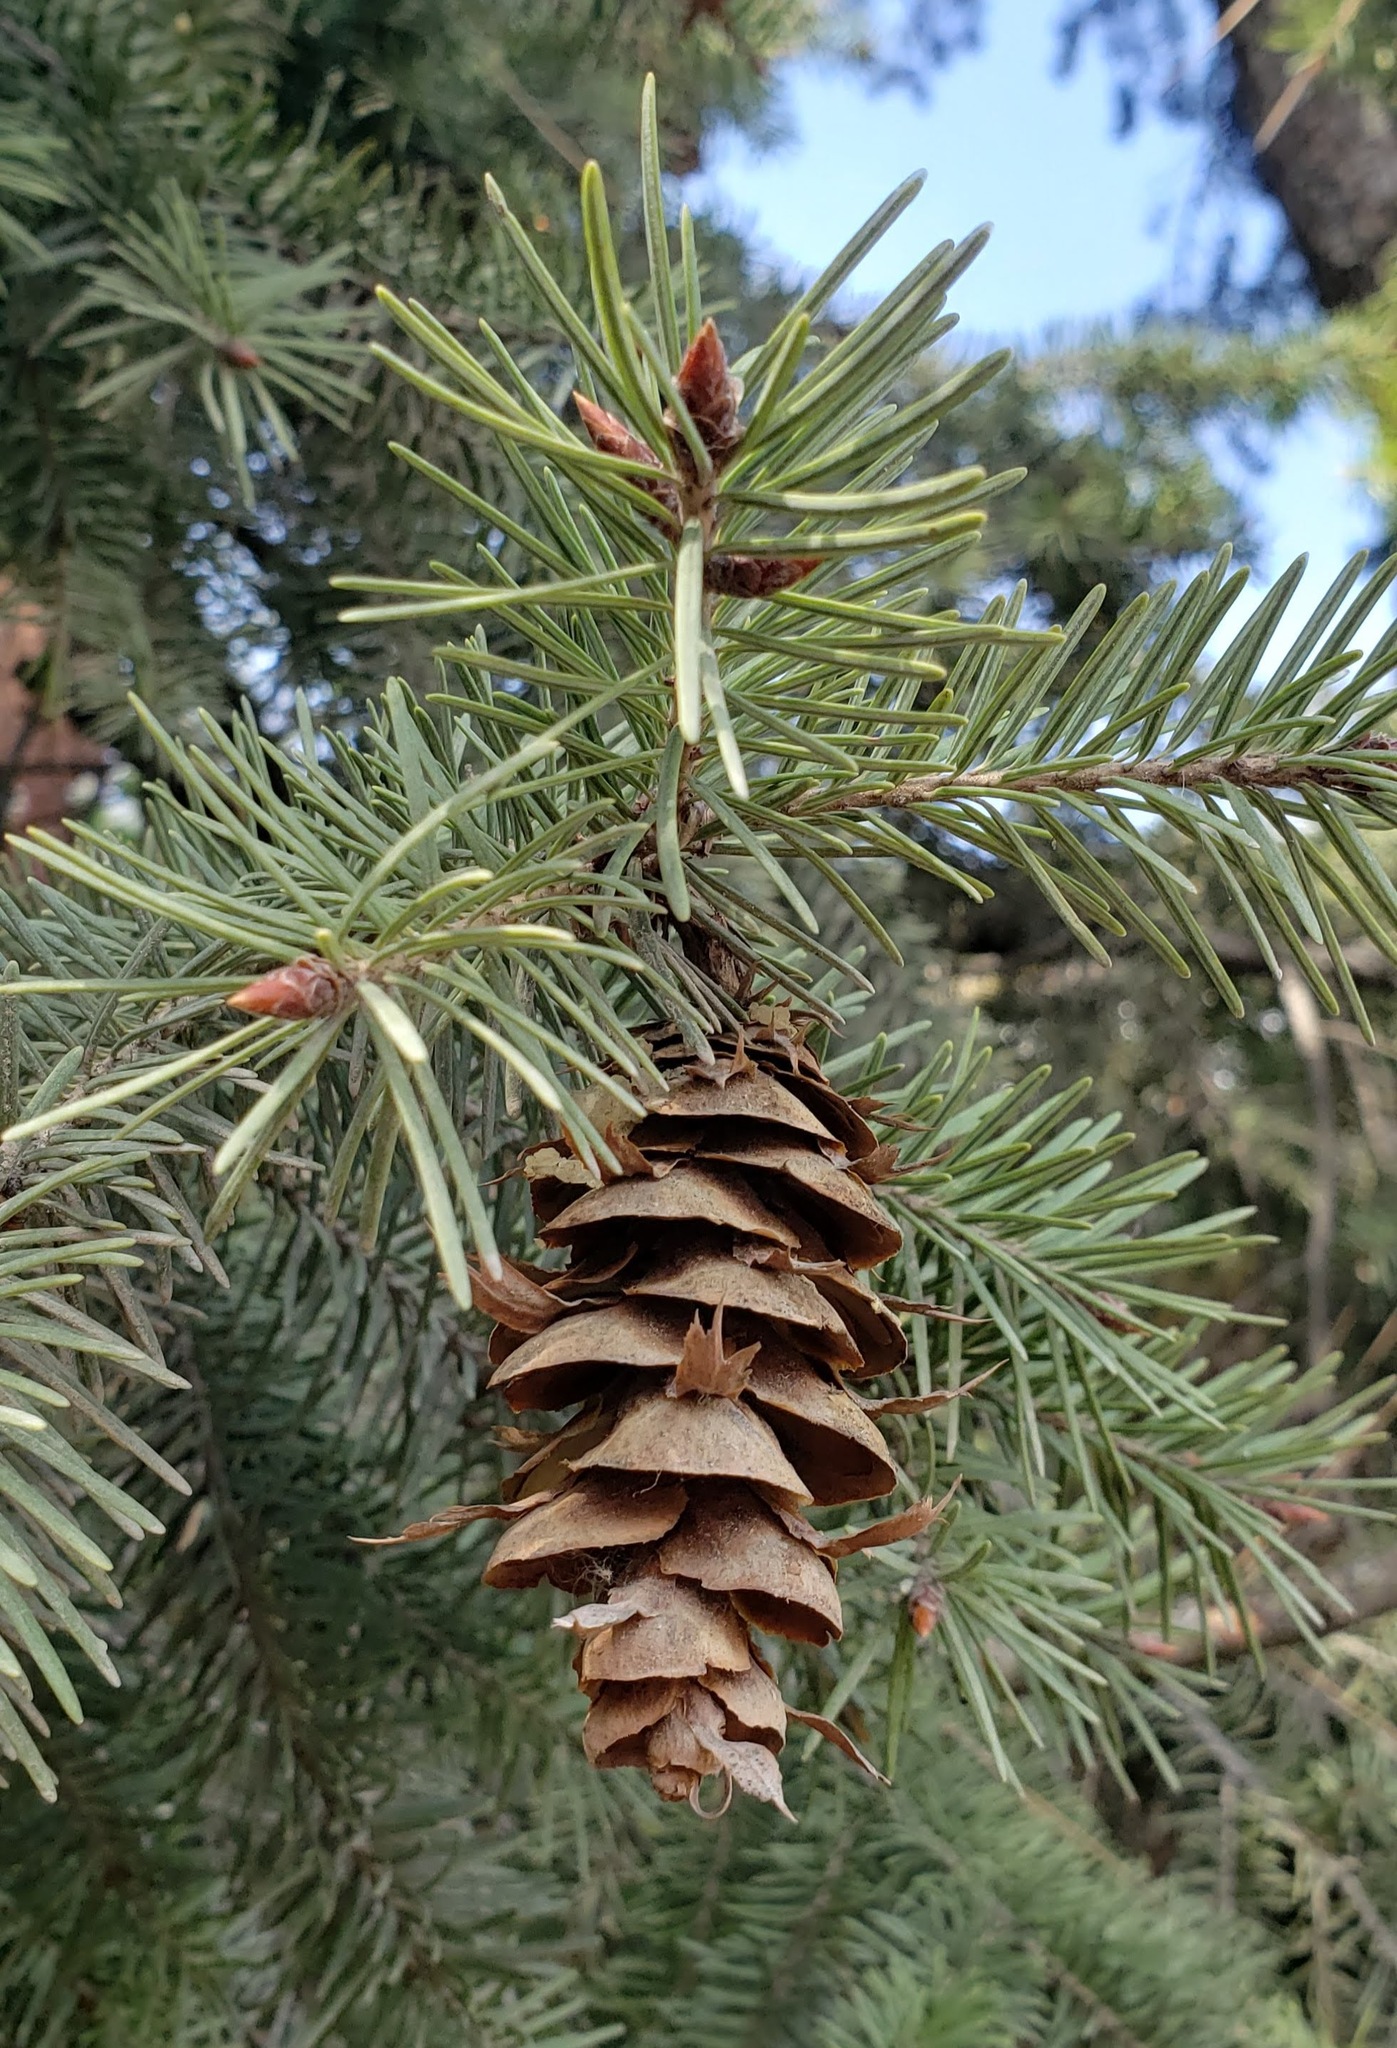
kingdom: Plantae
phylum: Tracheophyta
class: Pinopsida
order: Pinales
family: Pinaceae
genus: Pseudotsuga
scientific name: Pseudotsuga menziesii
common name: Douglas fir
